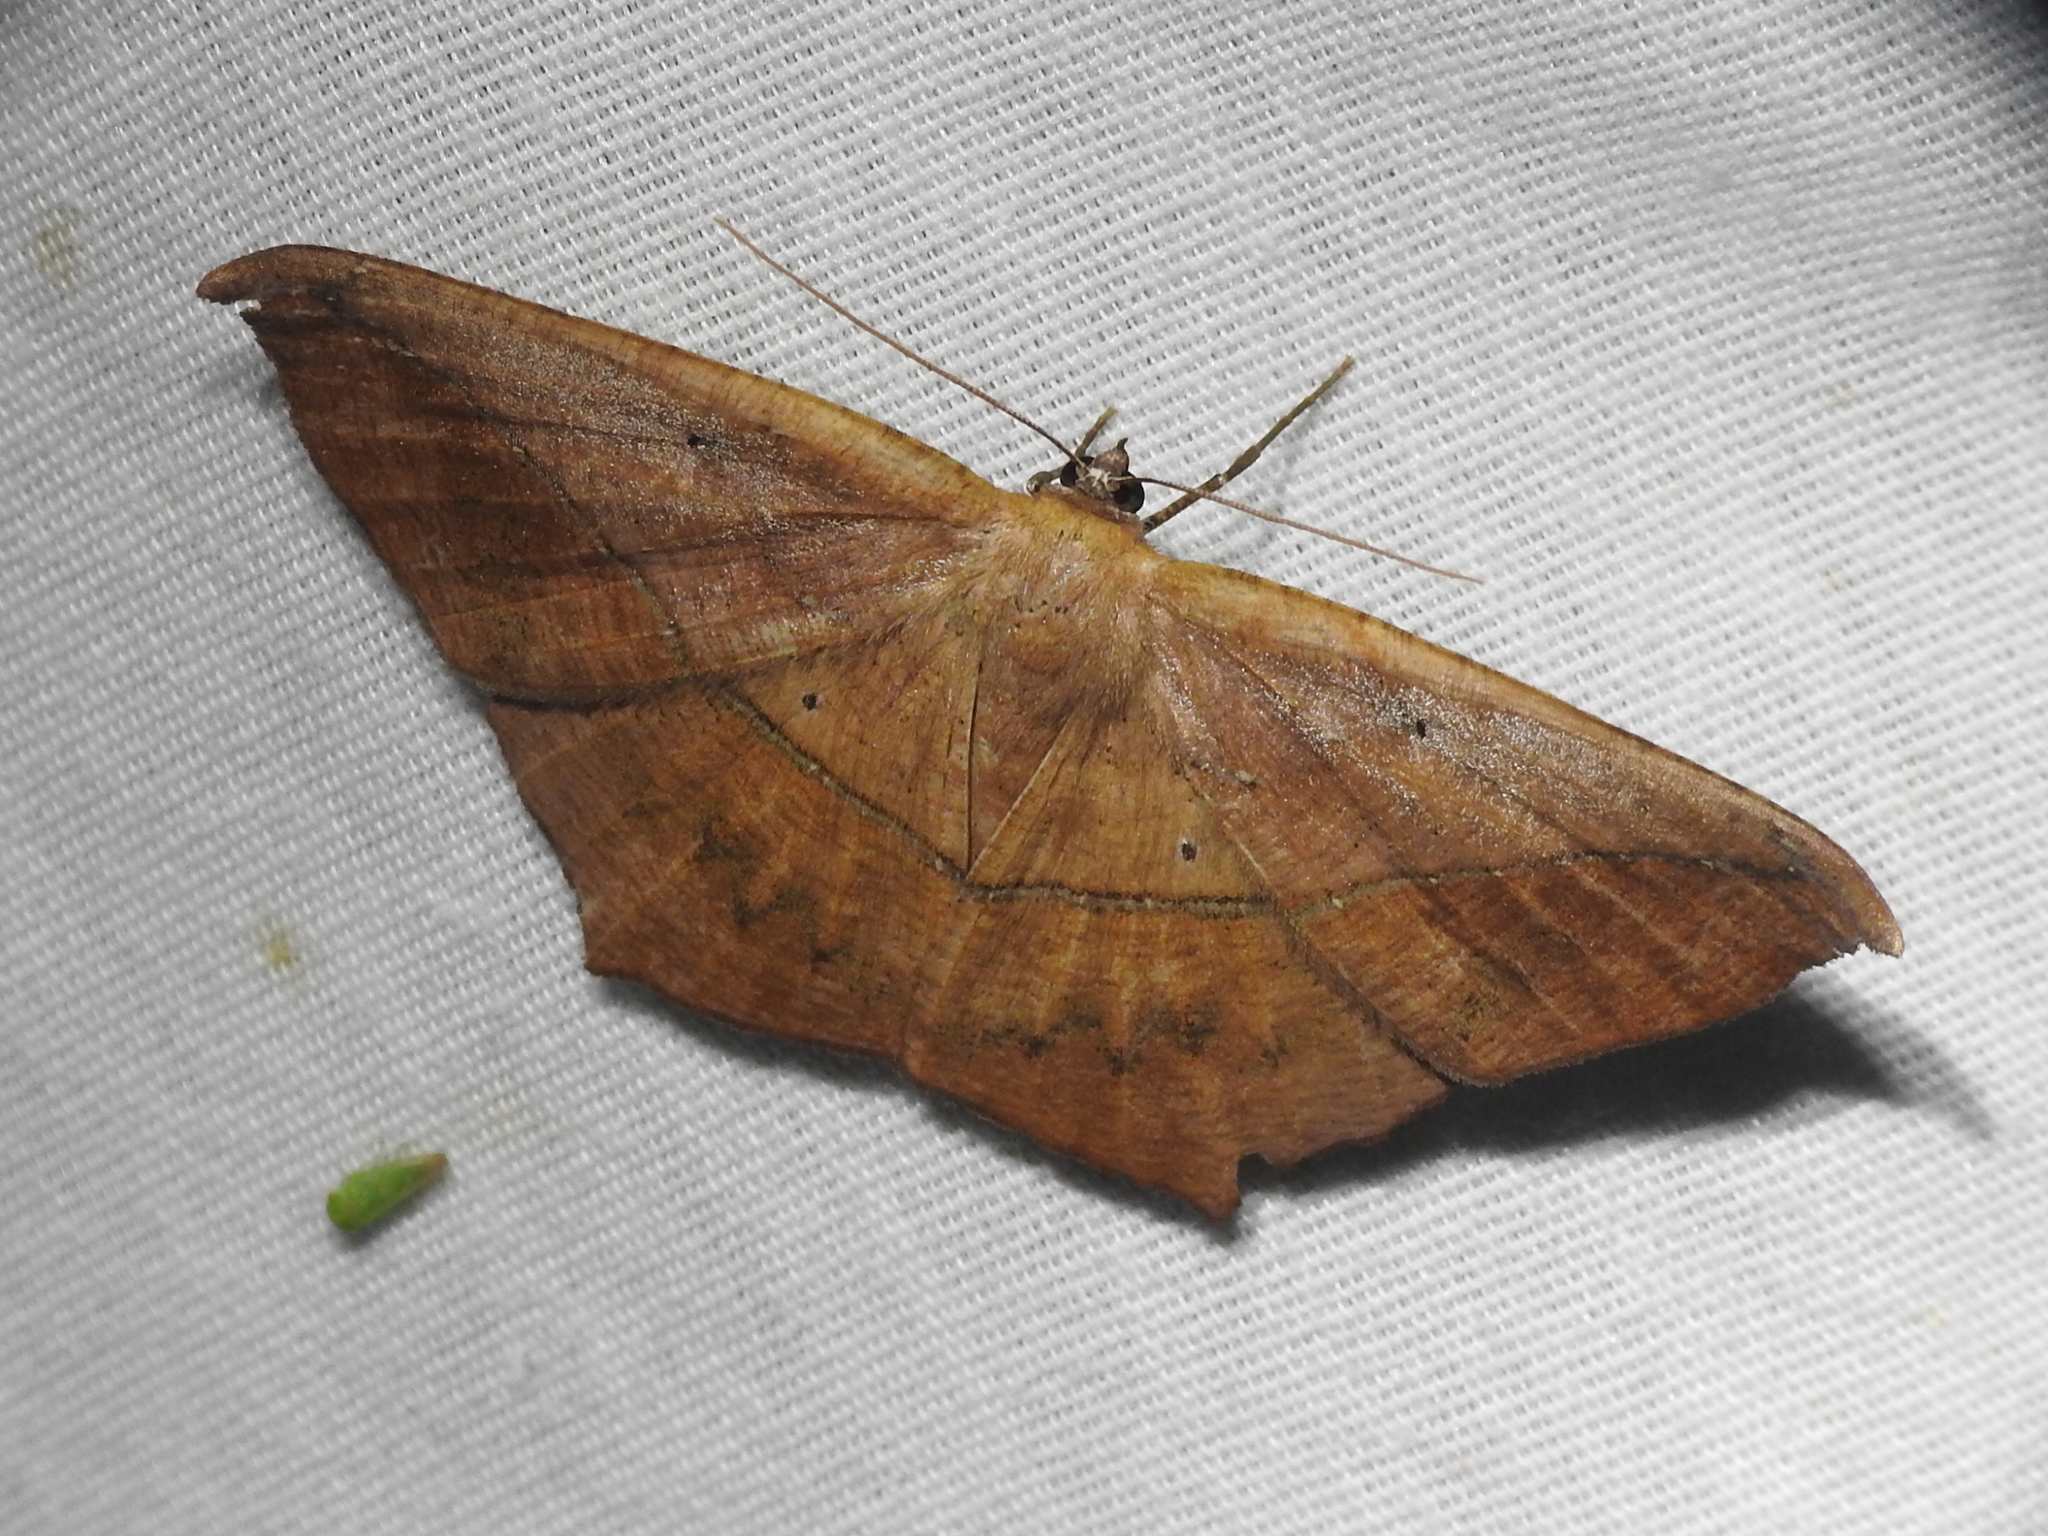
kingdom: Animalia
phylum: Arthropoda
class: Insecta
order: Lepidoptera
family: Geometridae
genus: Prochoerodes
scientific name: Prochoerodes lineola
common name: Large maple spanworm
